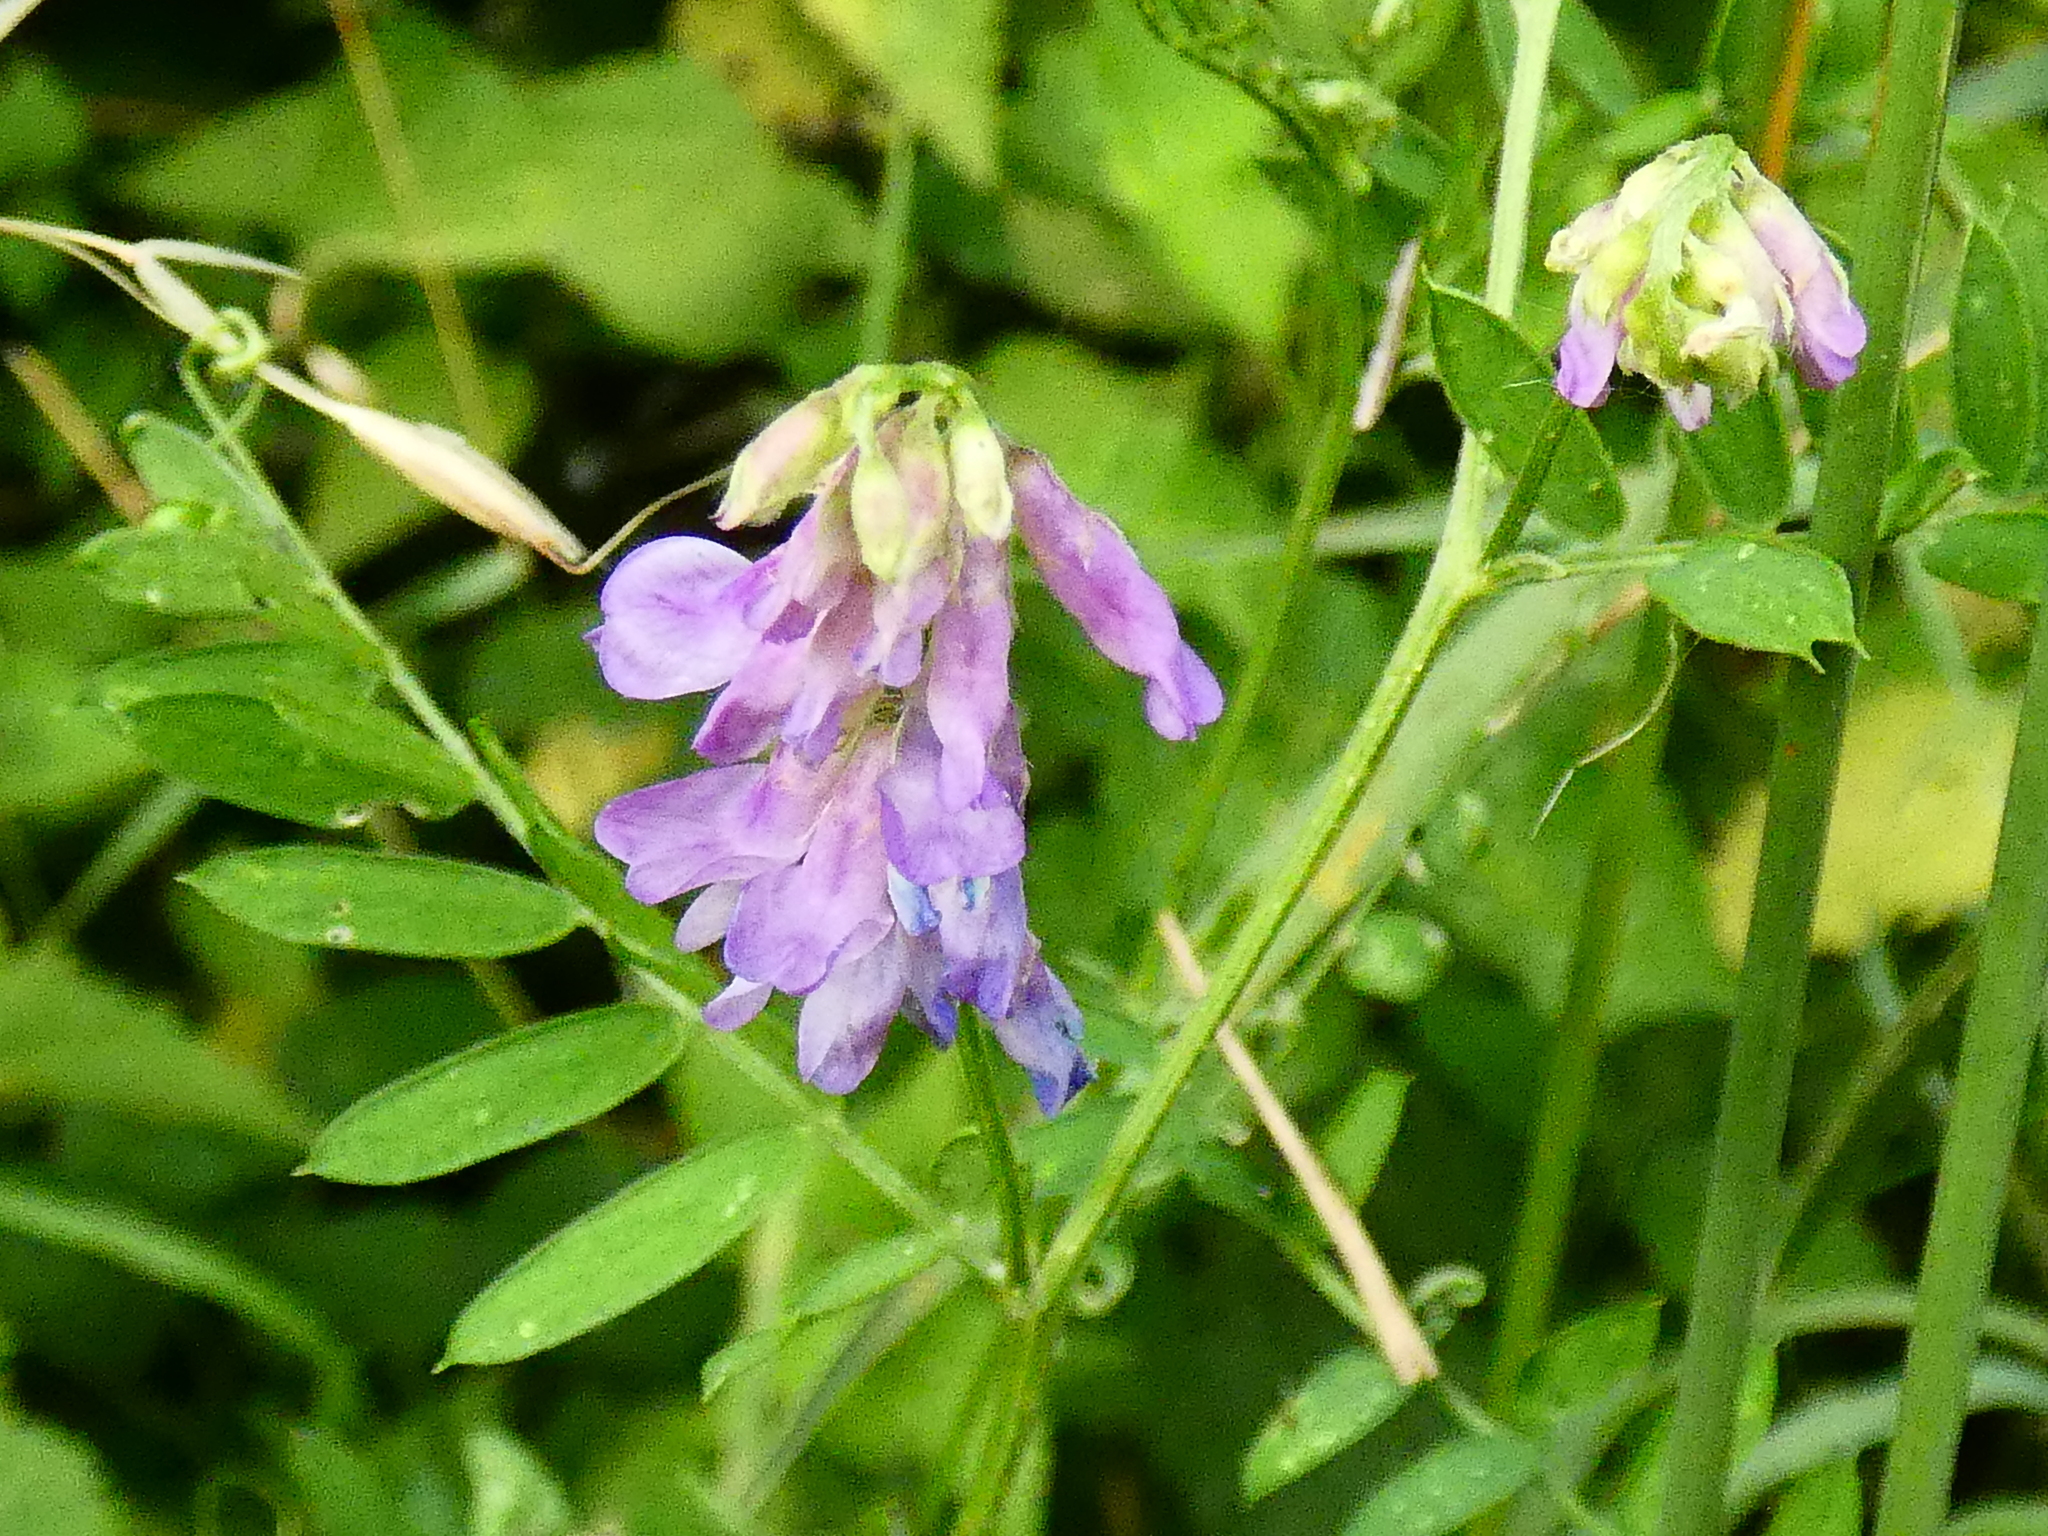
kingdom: Plantae
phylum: Tracheophyta
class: Magnoliopsida
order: Fabales
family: Fabaceae
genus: Vicia
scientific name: Vicia cracca
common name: Bird vetch
